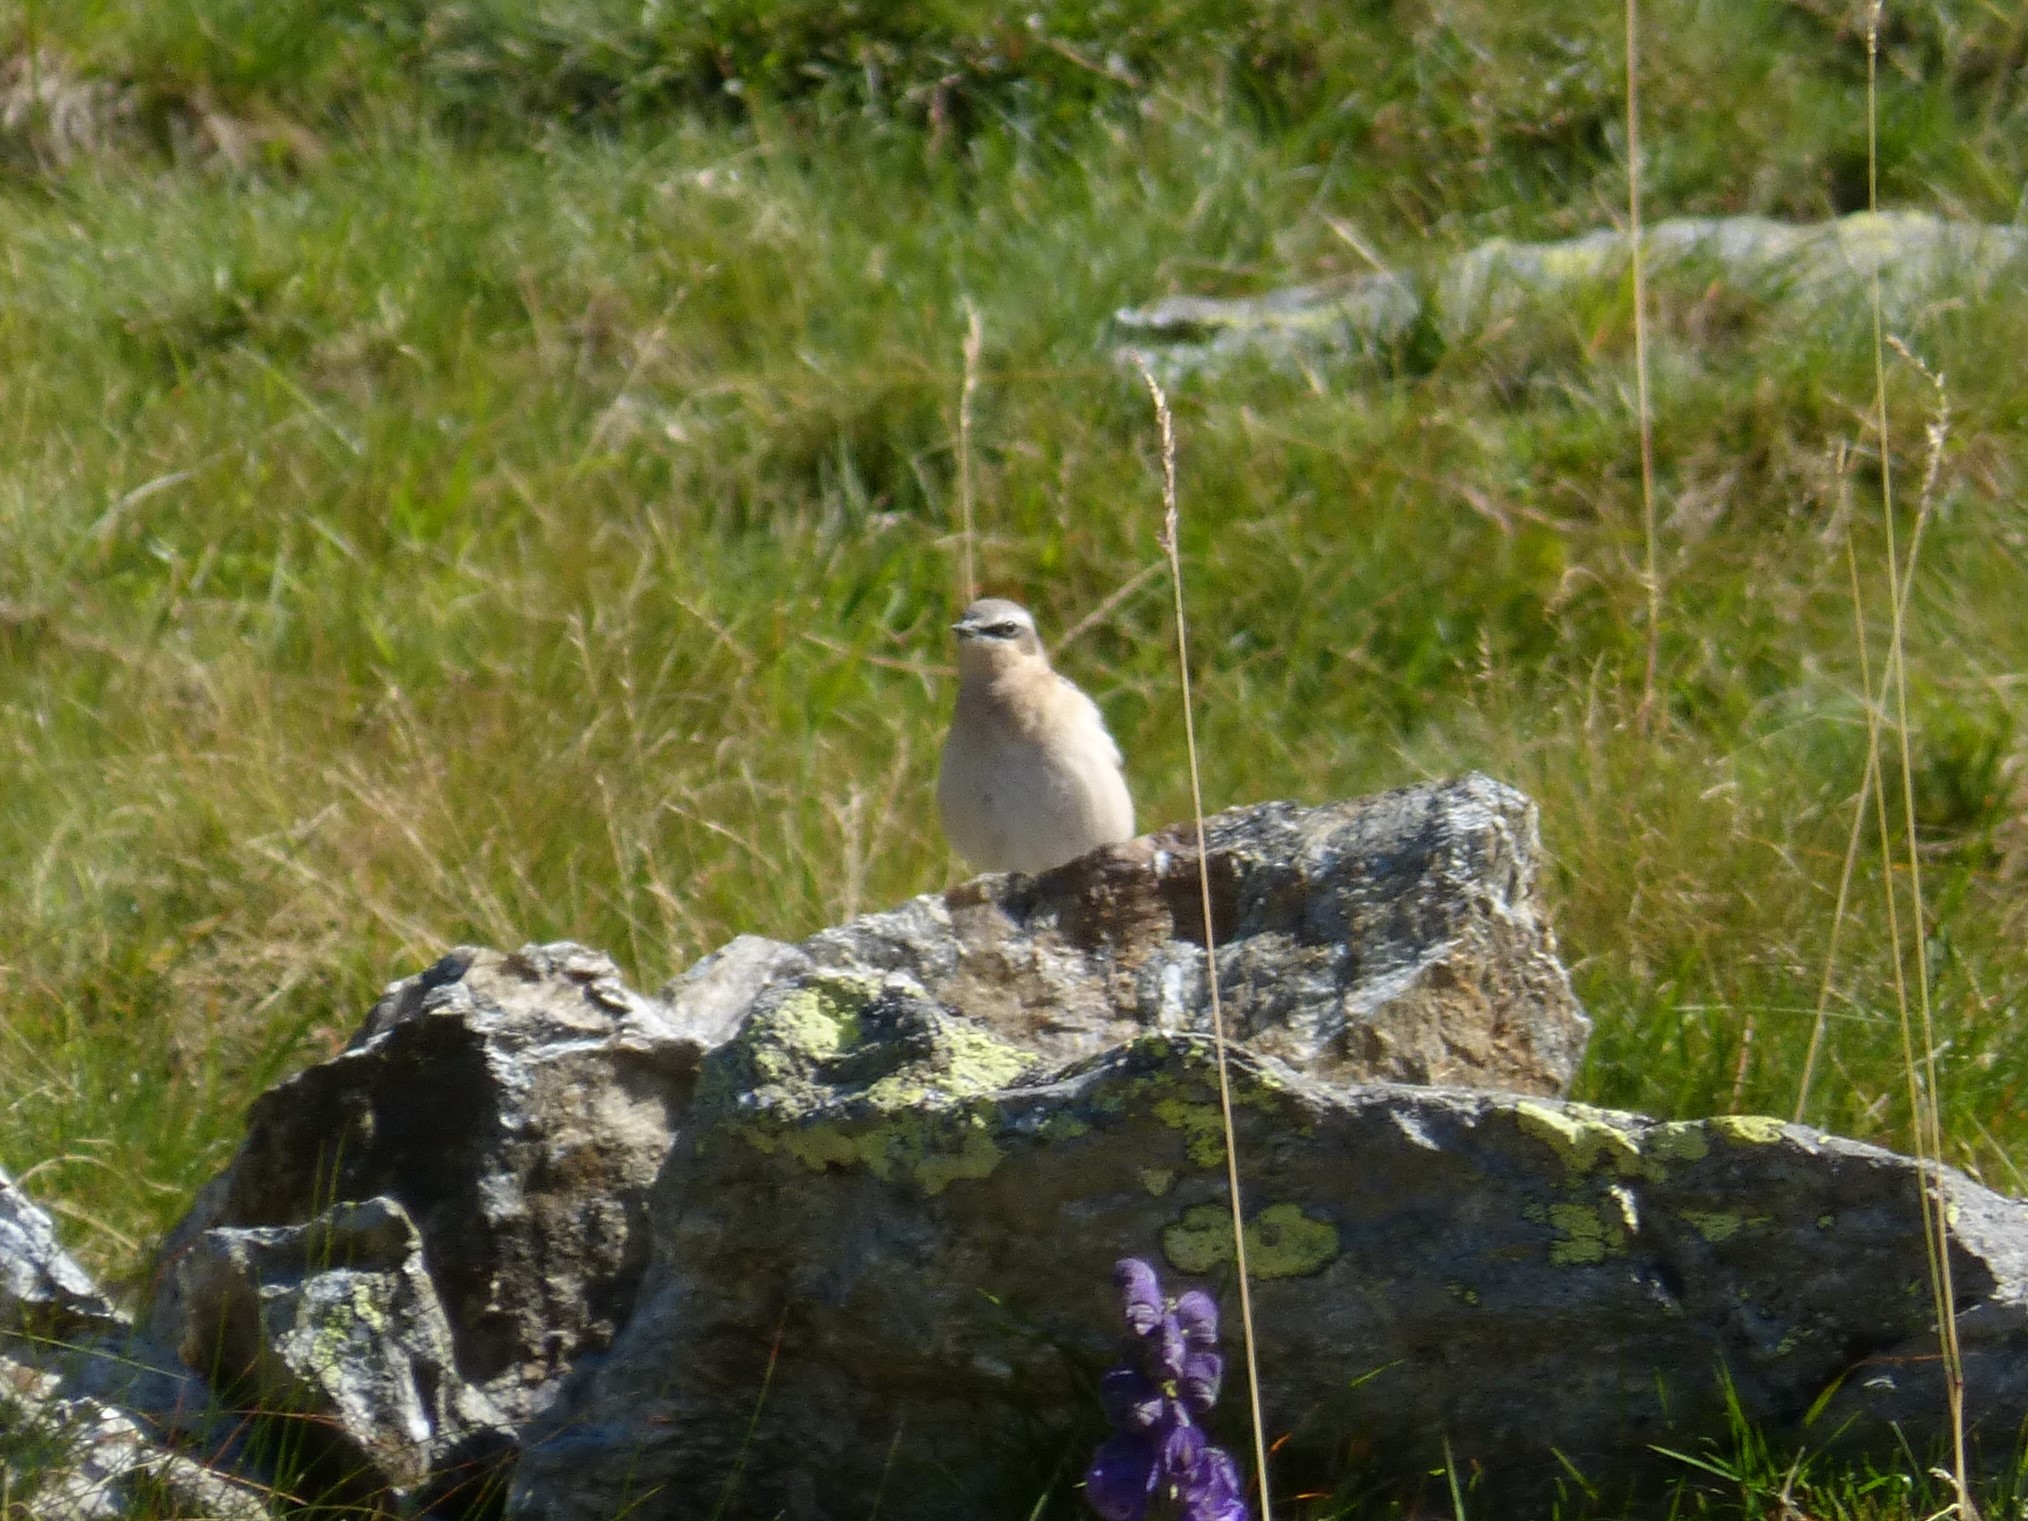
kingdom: Animalia
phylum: Chordata
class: Aves
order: Passeriformes
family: Muscicapidae
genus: Oenanthe
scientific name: Oenanthe oenanthe
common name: Northern wheatear
